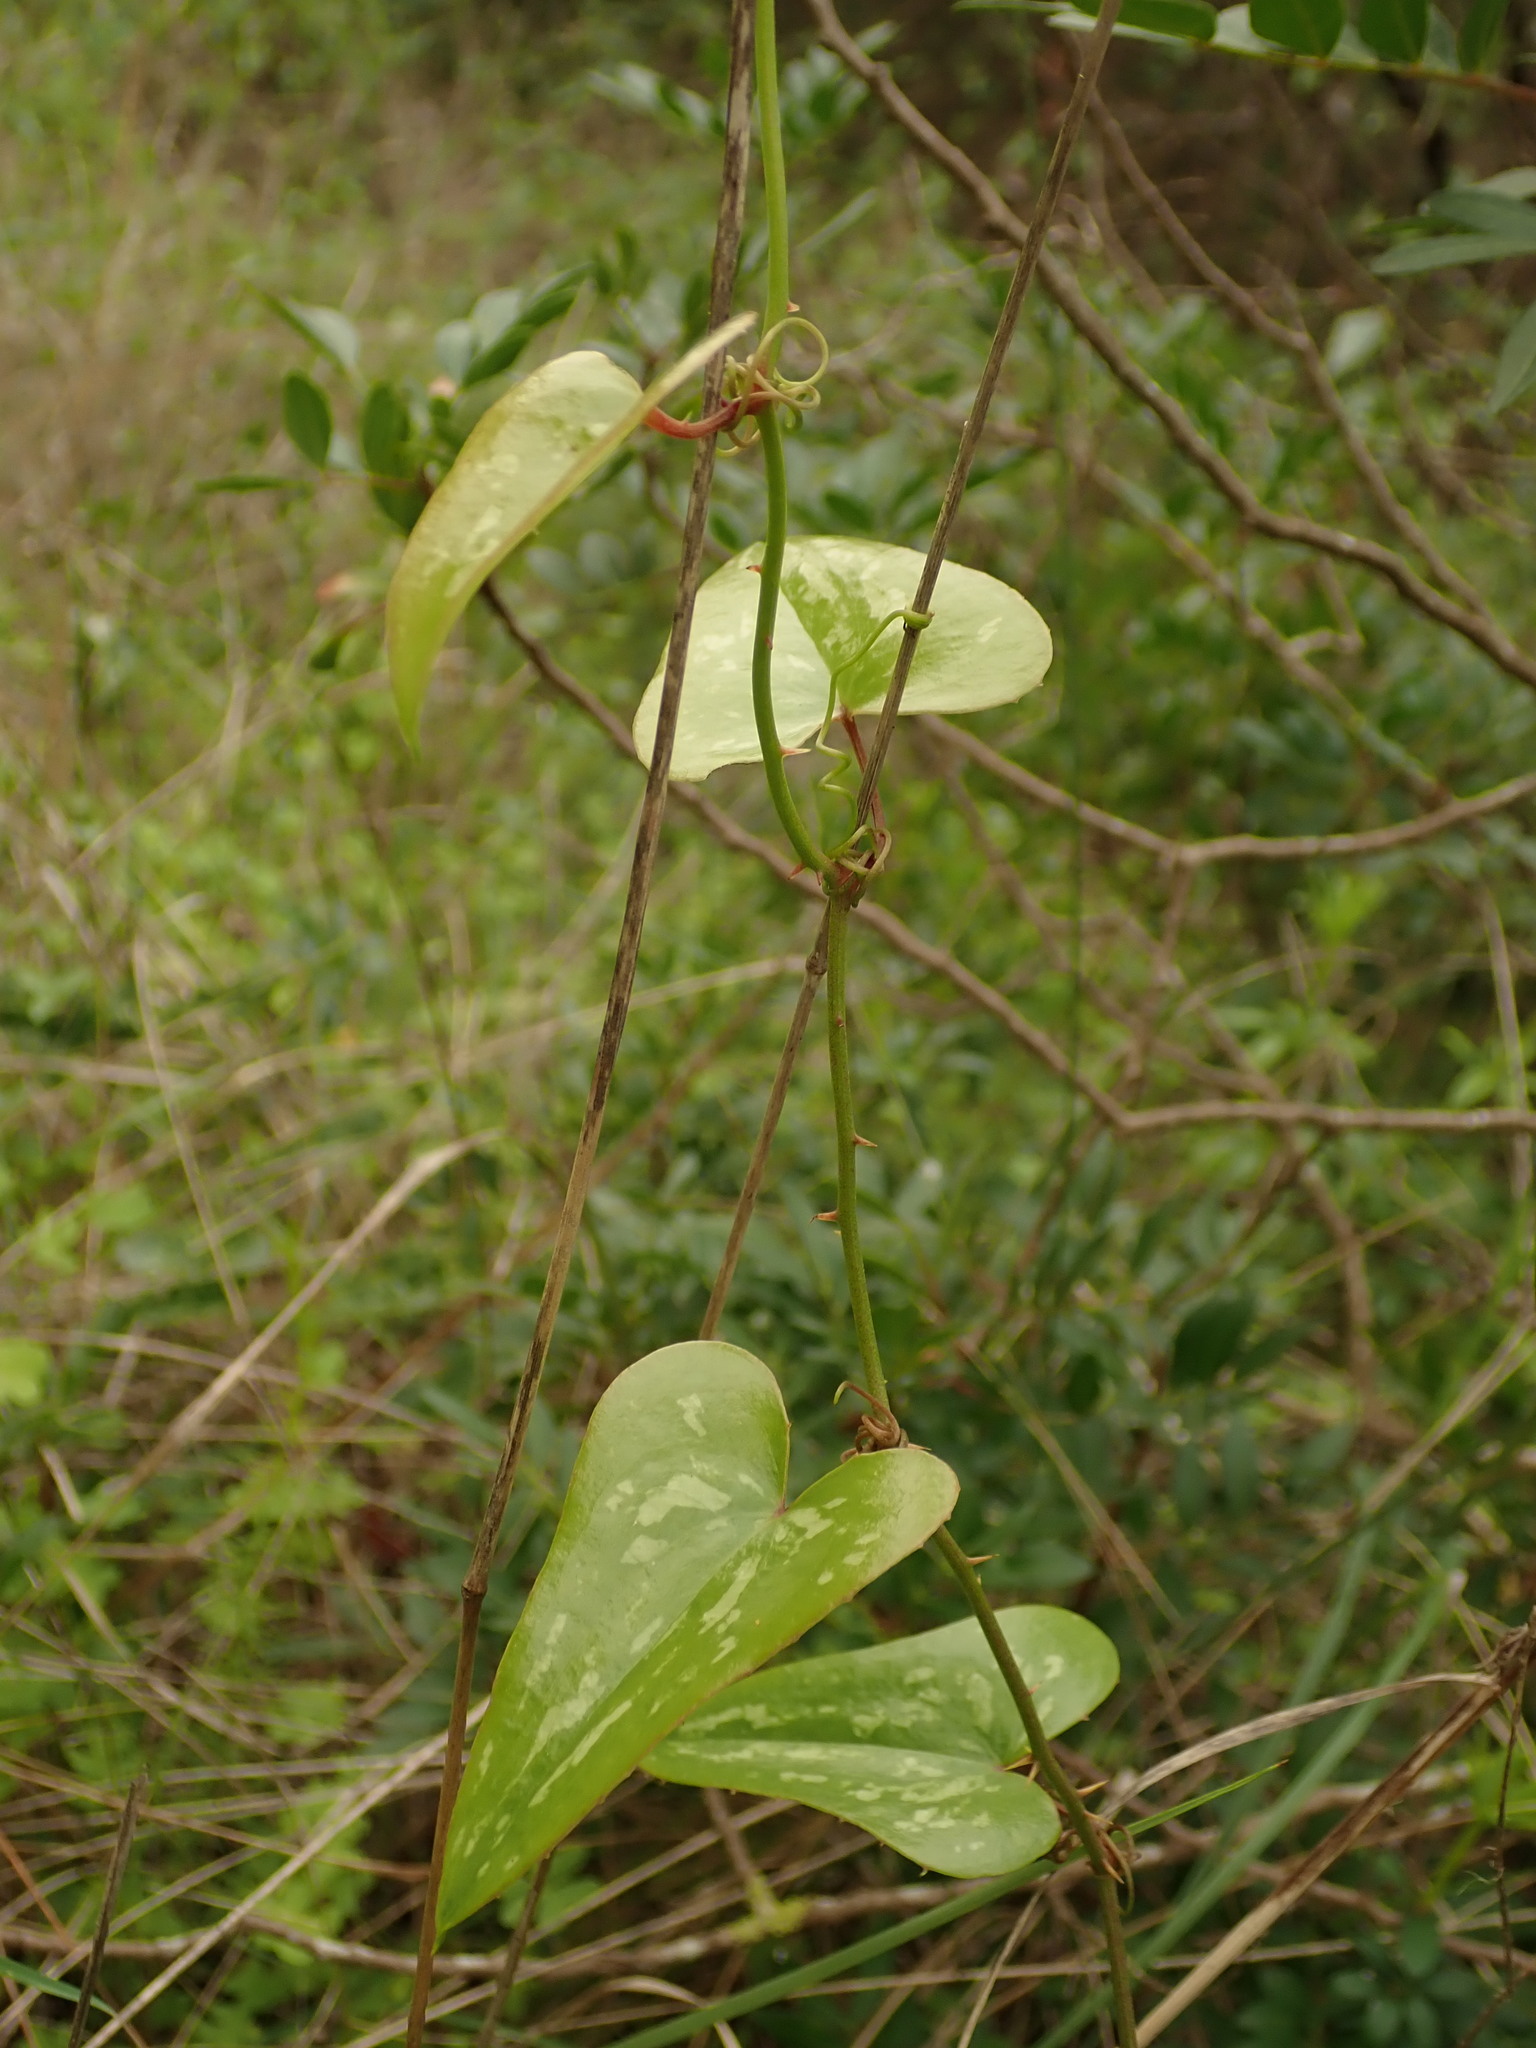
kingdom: Plantae
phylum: Tracheophyta
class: Liliopsida
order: Liliales
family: Smilacaceae
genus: Smilax
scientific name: Smilax aspera
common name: Common smilax
